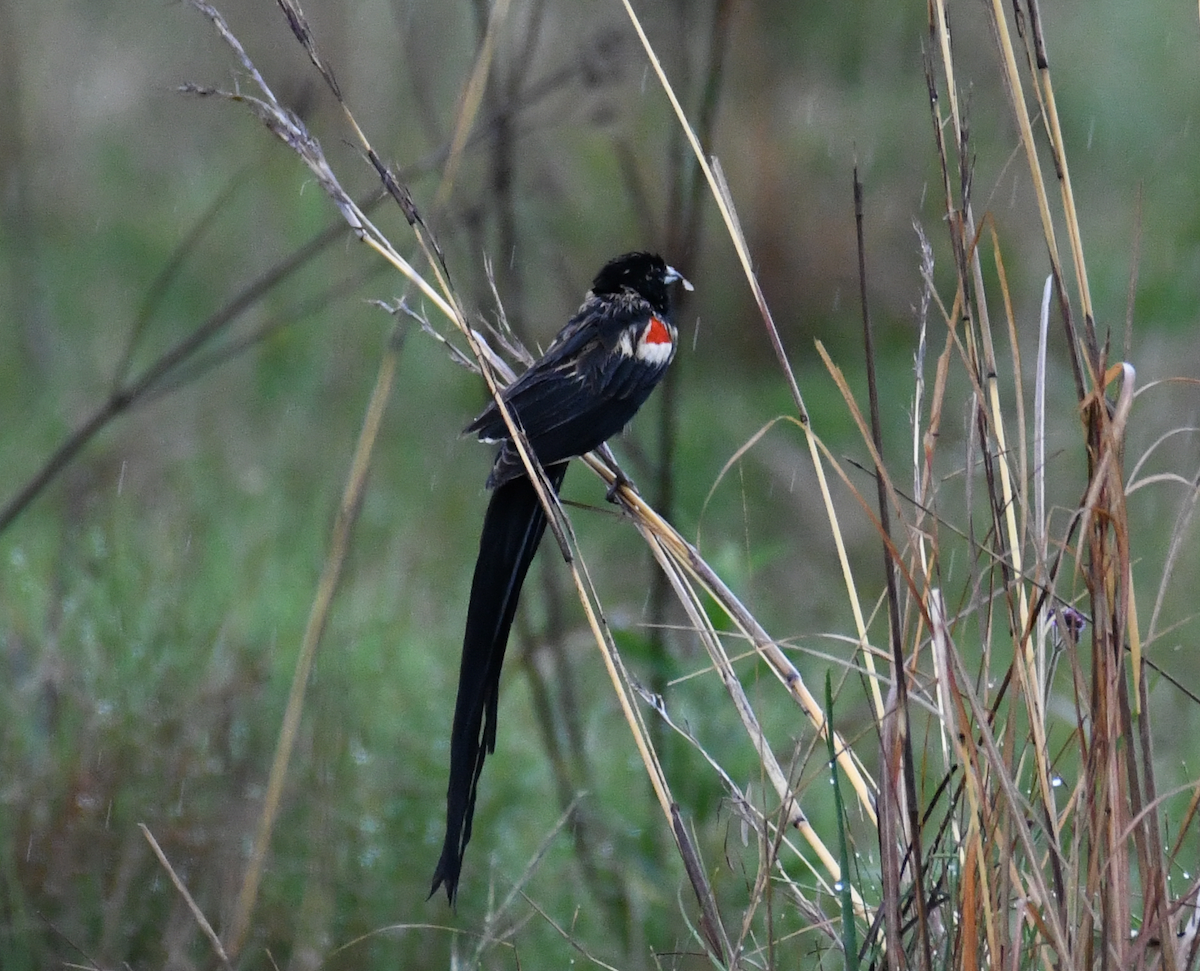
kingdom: Animalia
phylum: Chordata
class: Aves
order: Passeriformes
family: Ploceidae
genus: Euplectes
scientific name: Euplectes progne
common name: Long-tailed widowbird
